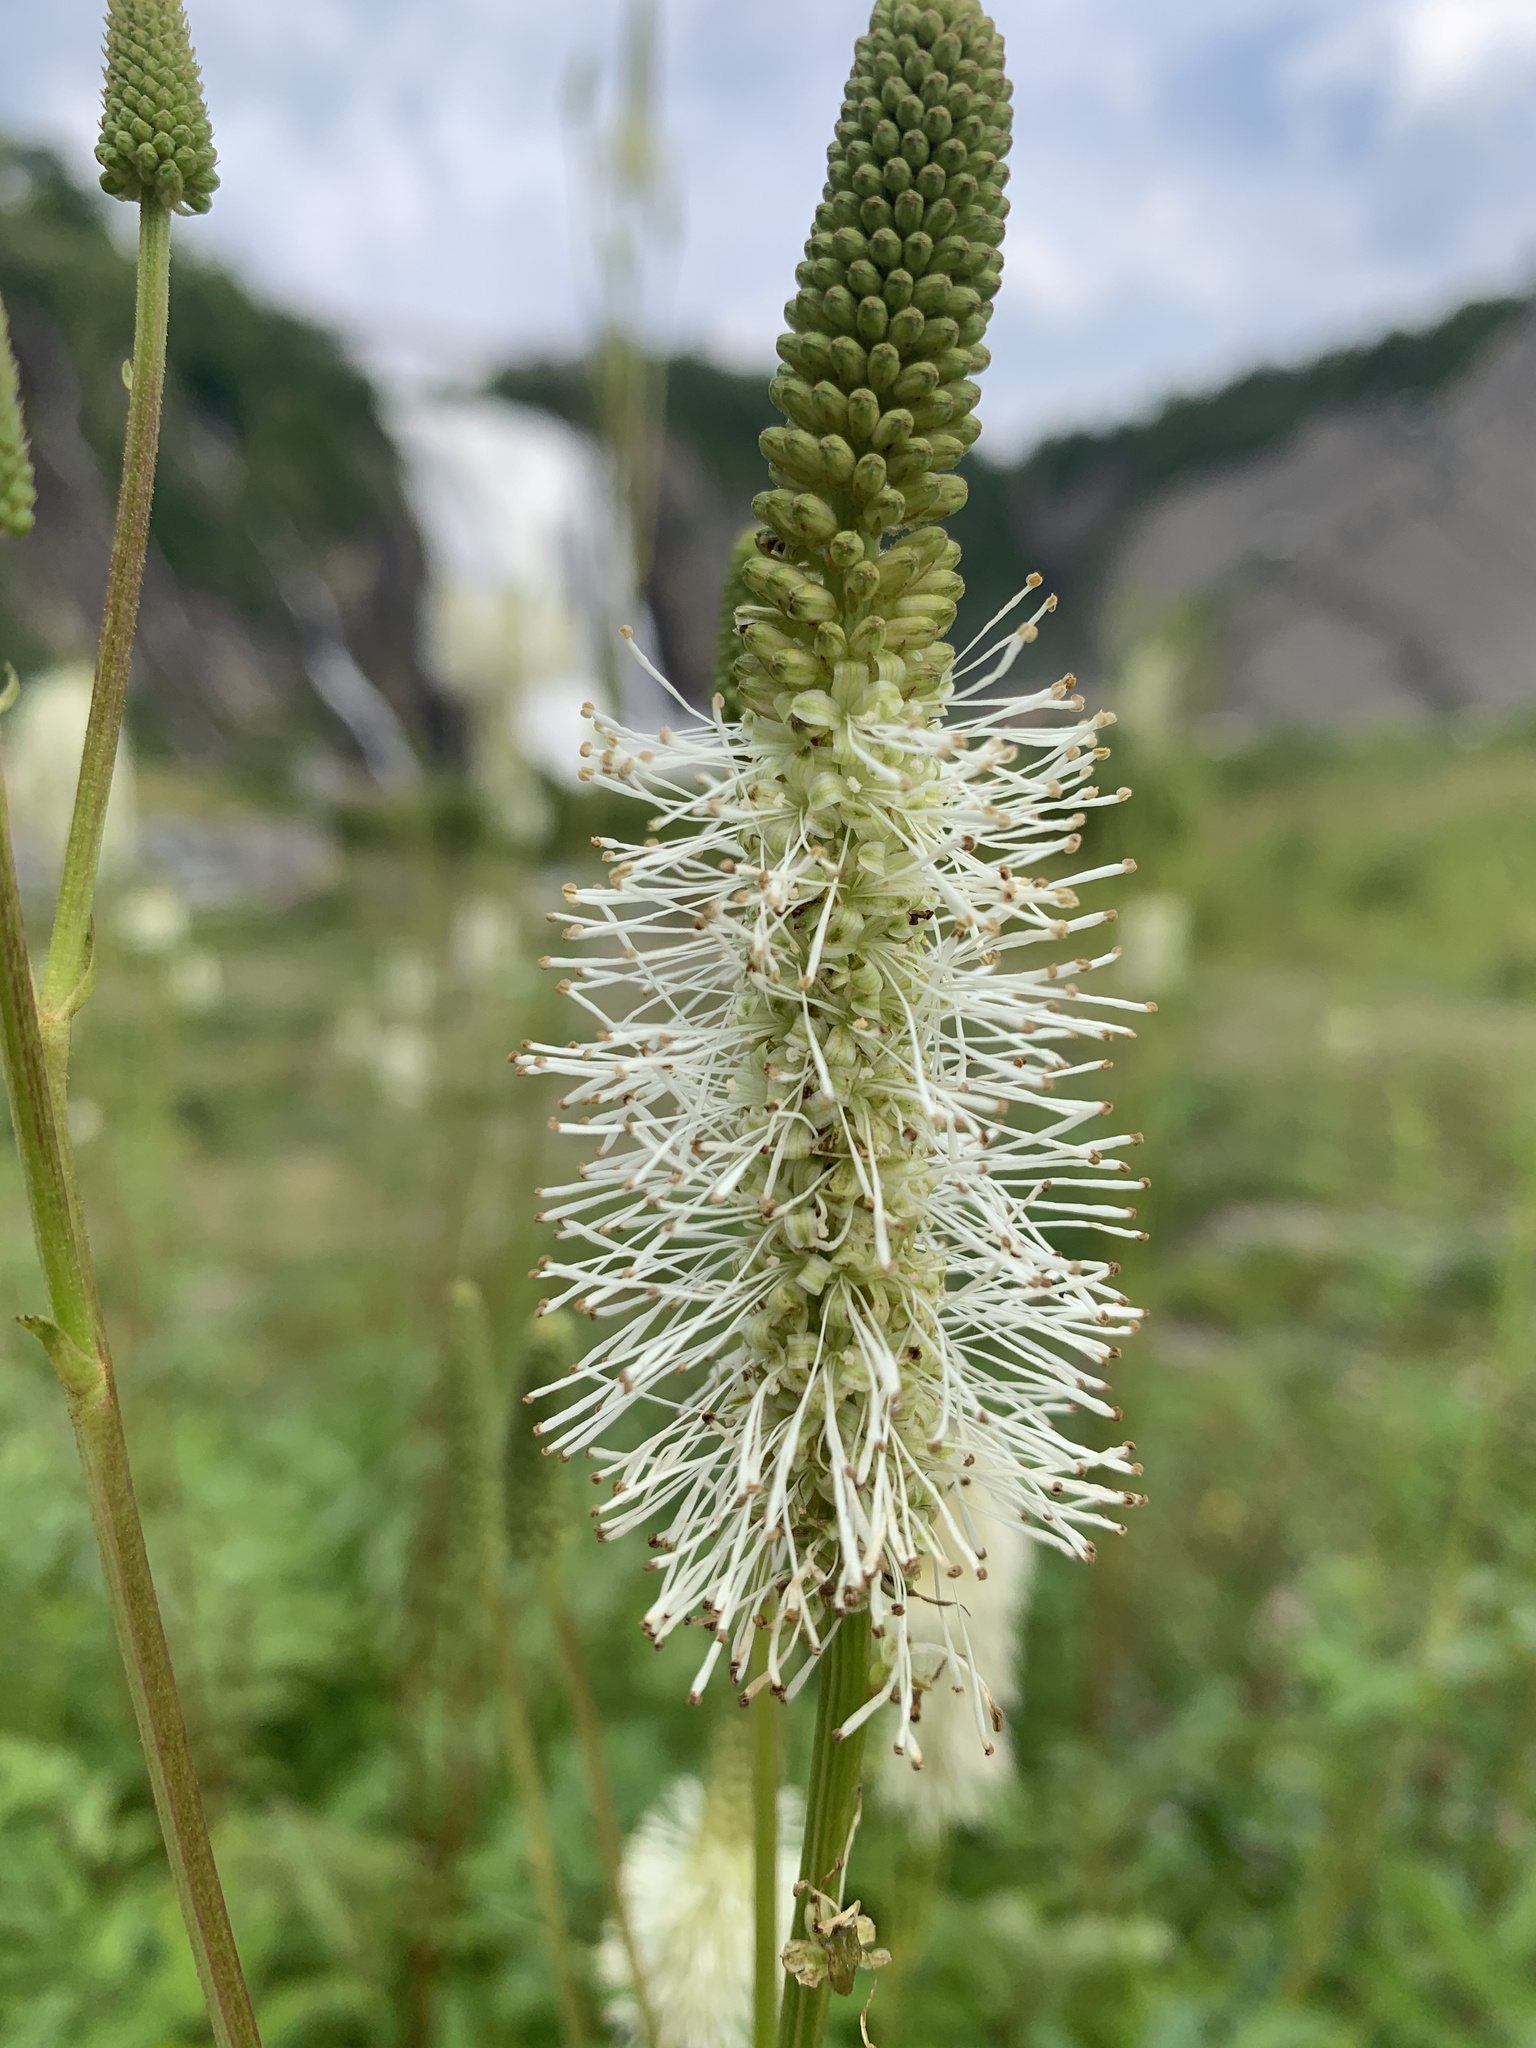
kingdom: Plantae
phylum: Tracheophyta
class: Magnoliopsida
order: Rosales
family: Rosaceae
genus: Sanguisorba
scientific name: Sanguisorba canadensis
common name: White burnet
